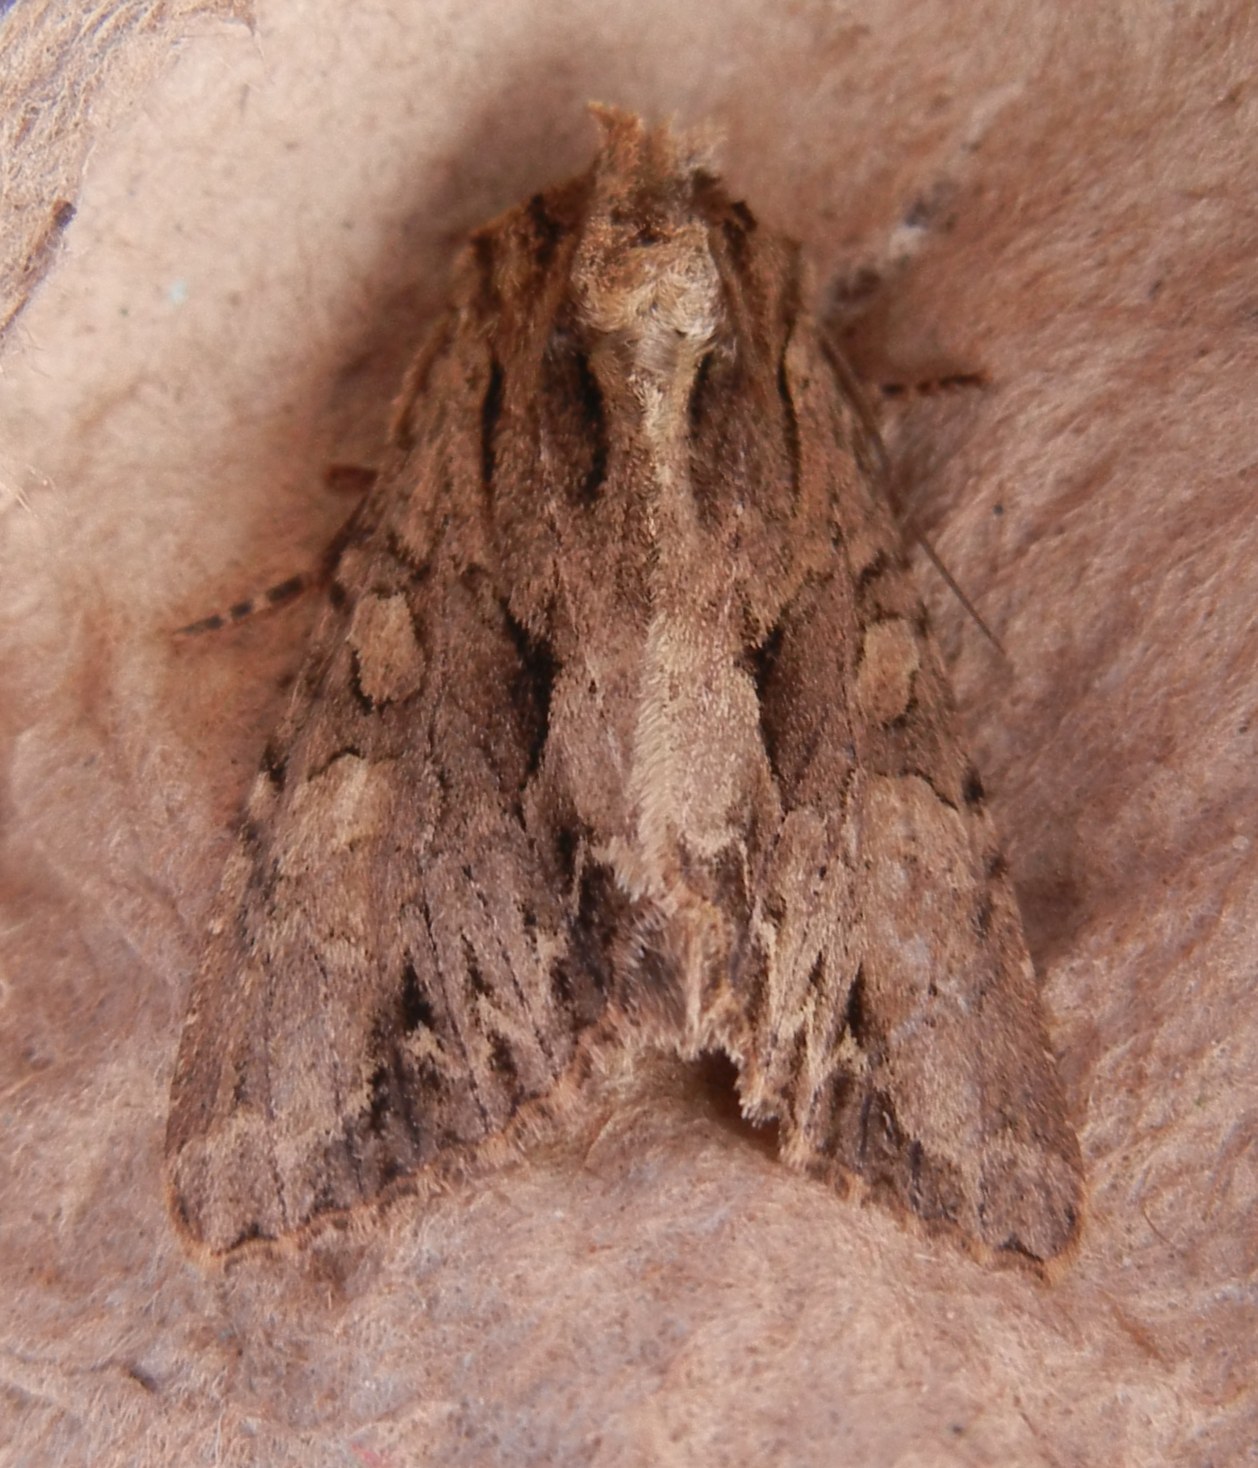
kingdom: Animalia
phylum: Arthropoda
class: Insecta
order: Lepidoptera
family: Noctuidae
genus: Apamea
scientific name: Apamea monoglypha
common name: Dark arches
